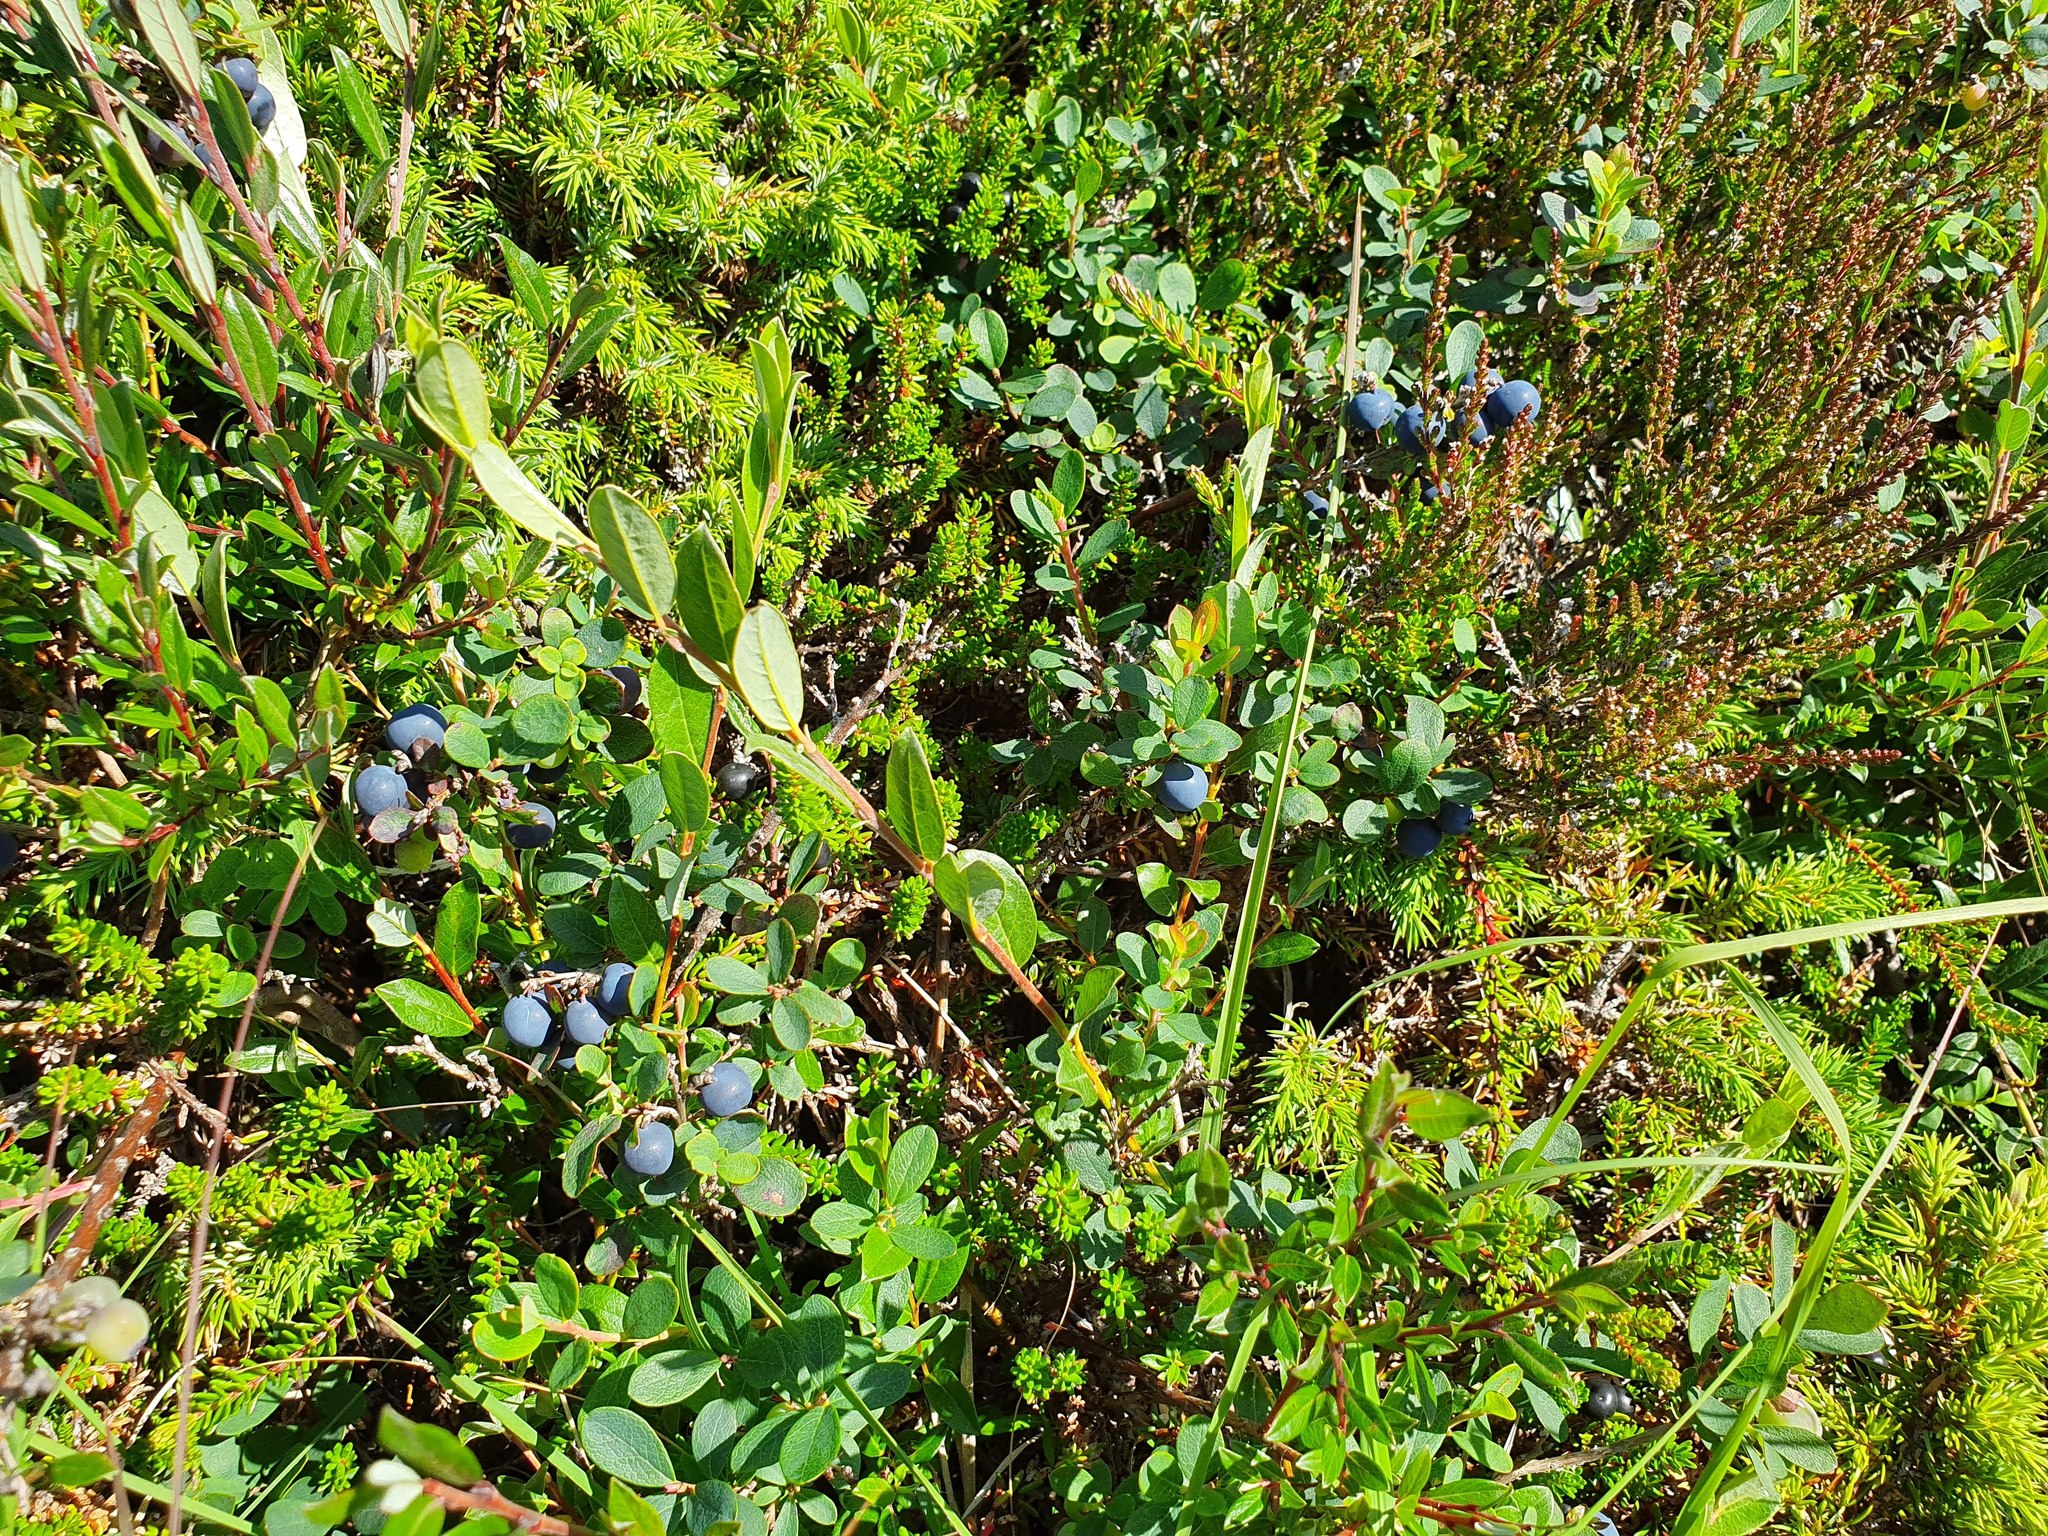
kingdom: Plantae
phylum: Tracheophyta
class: Magnoliopsida
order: Ericales
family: Ericaceae
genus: Vaccinium
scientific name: Vaccinium uliginosum
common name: Bog bilberry
